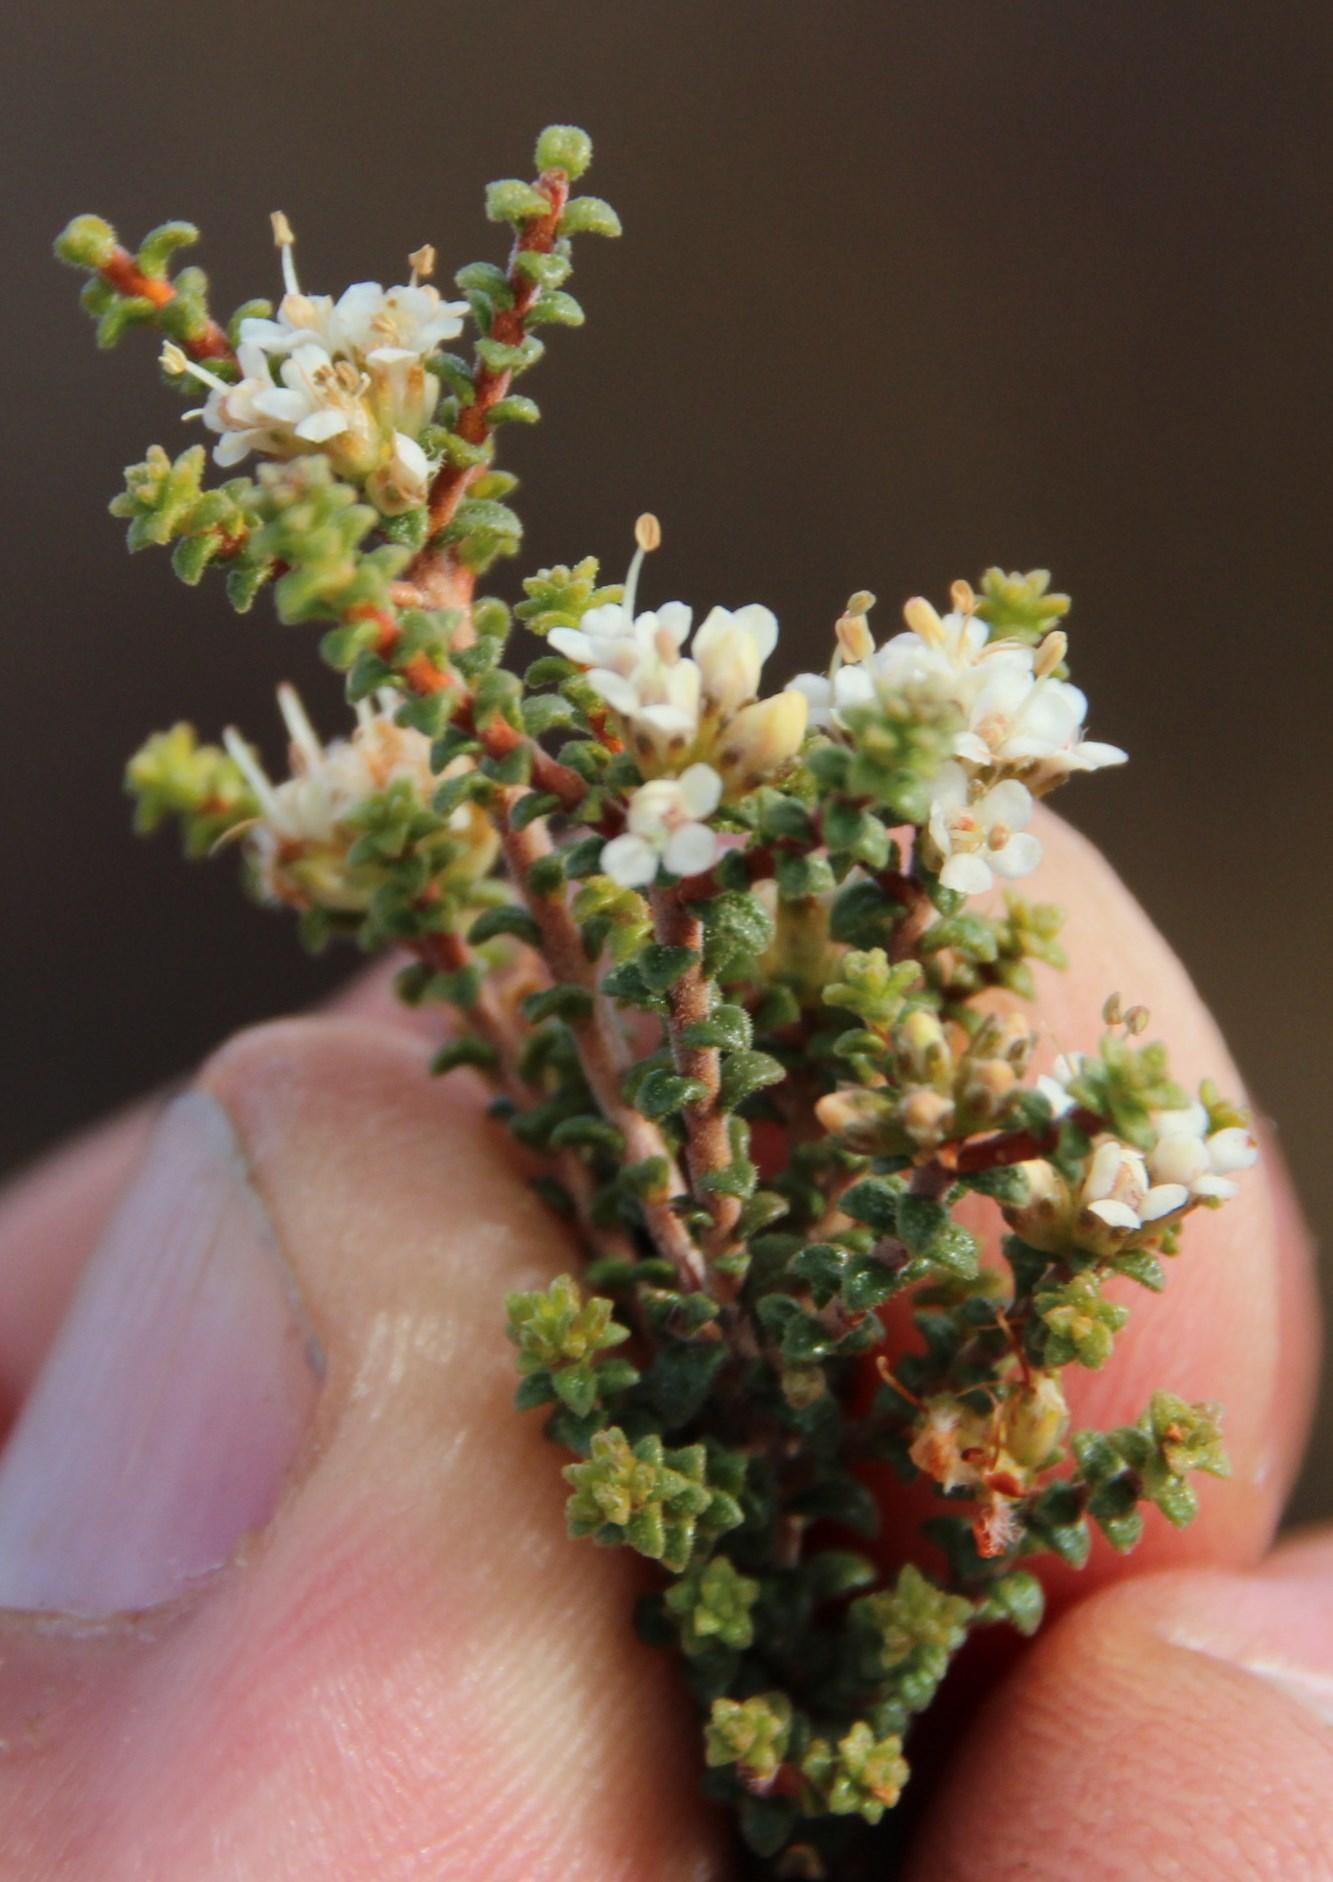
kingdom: Plantae
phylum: Tracheophyta
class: Magnoliopsida
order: Sapindales
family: Rutaceae
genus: Macrostylis
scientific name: Macrostylis squarrosa
